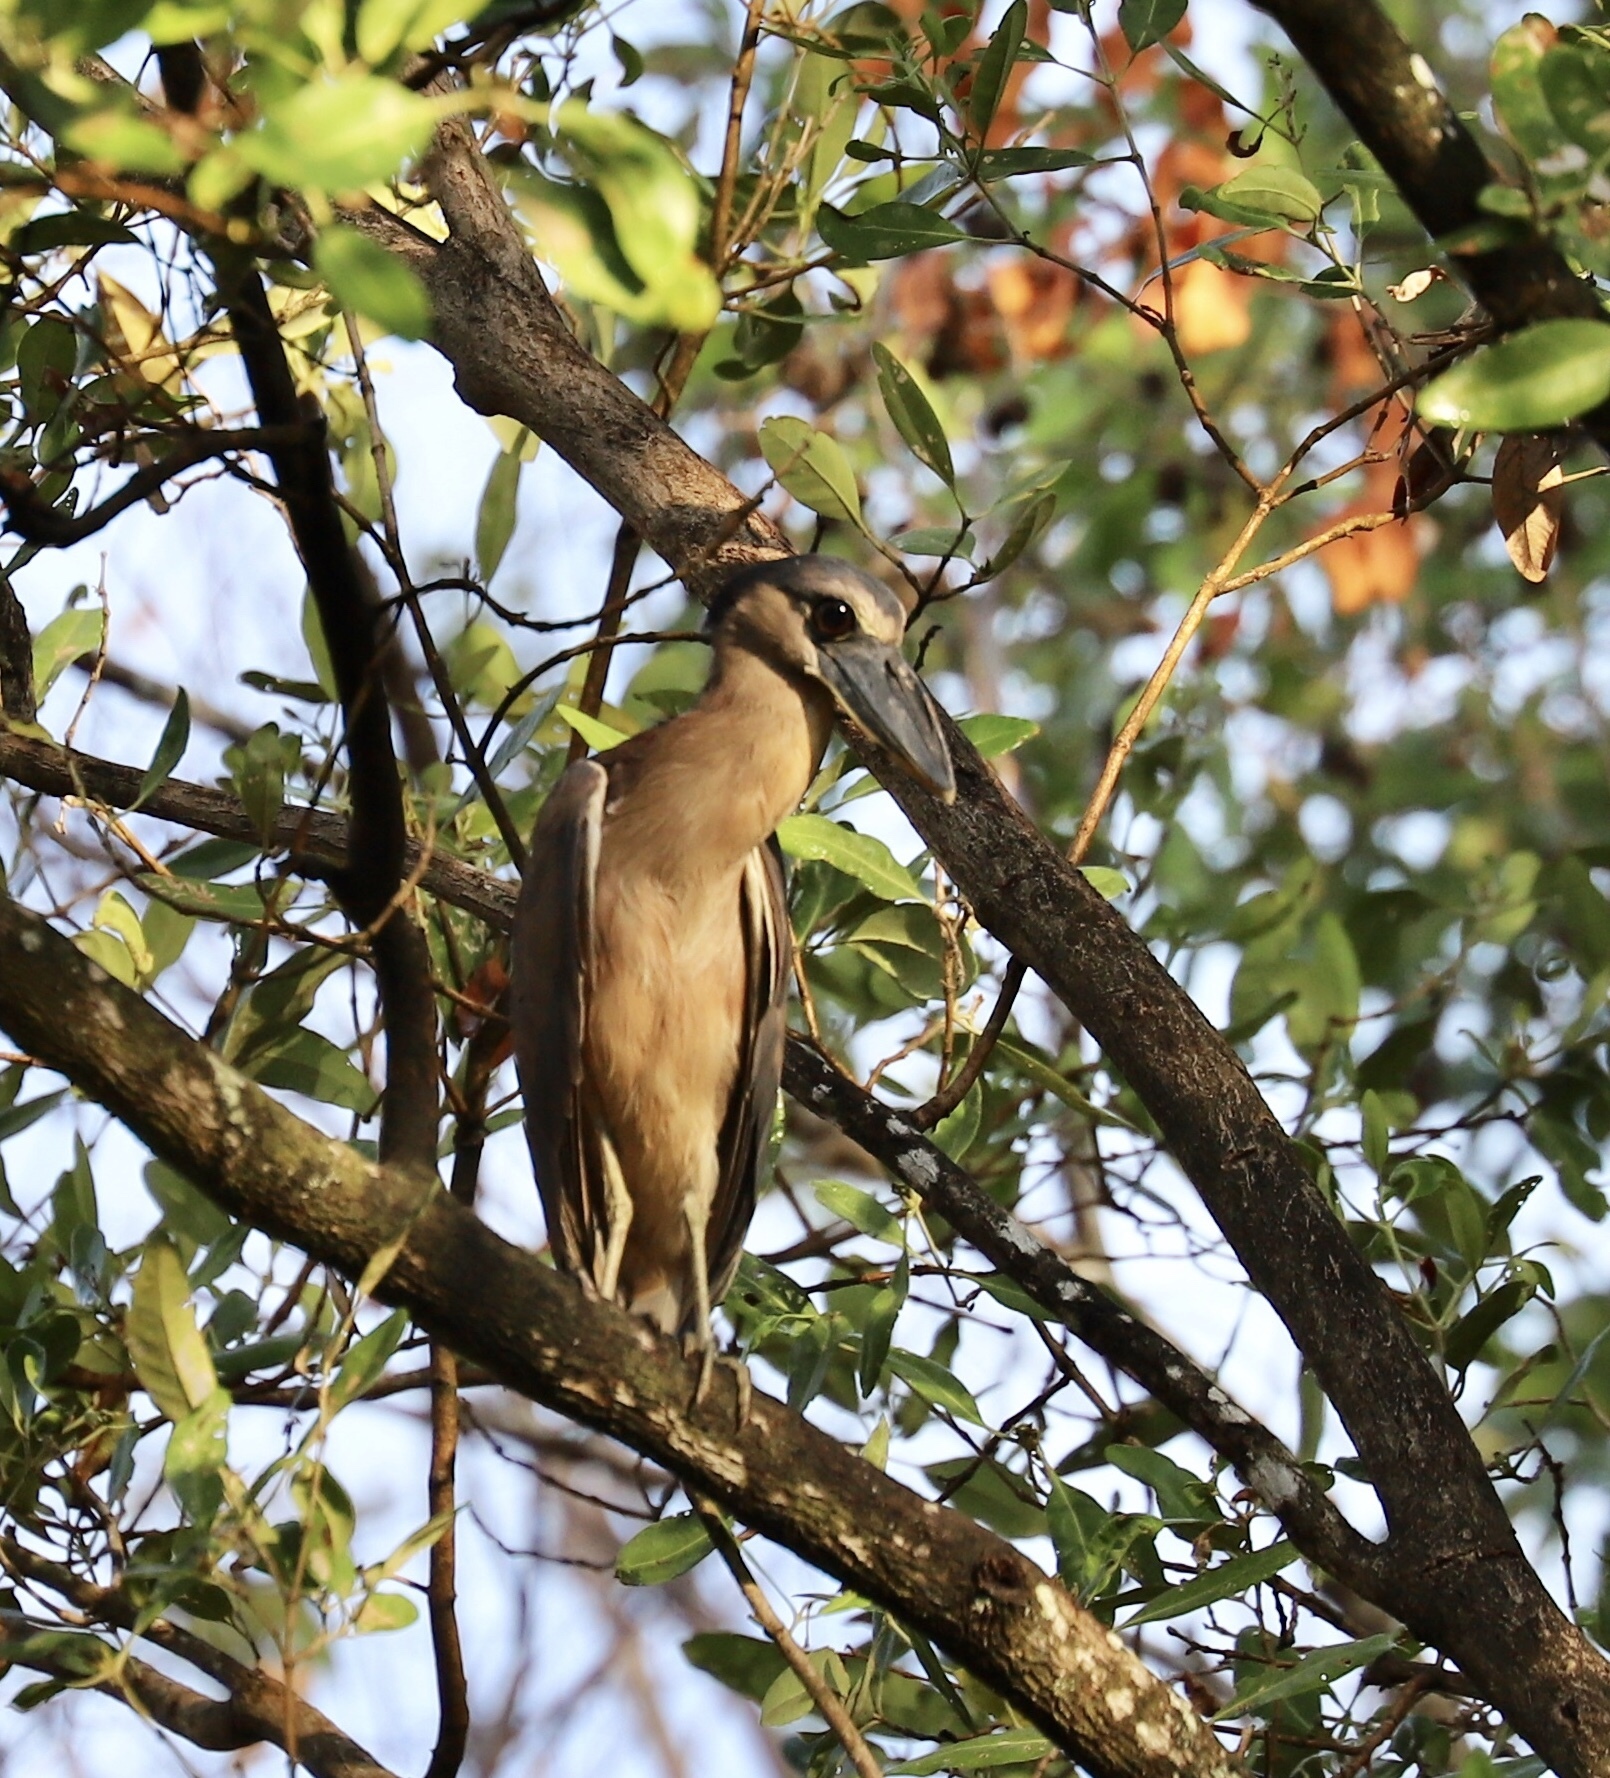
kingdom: Animalia
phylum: Chordata
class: Aves
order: Pelecaniformes
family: Ardeidae
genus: Cochlearius
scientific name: Cochlearius cochlearius
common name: Boat-billed heron
